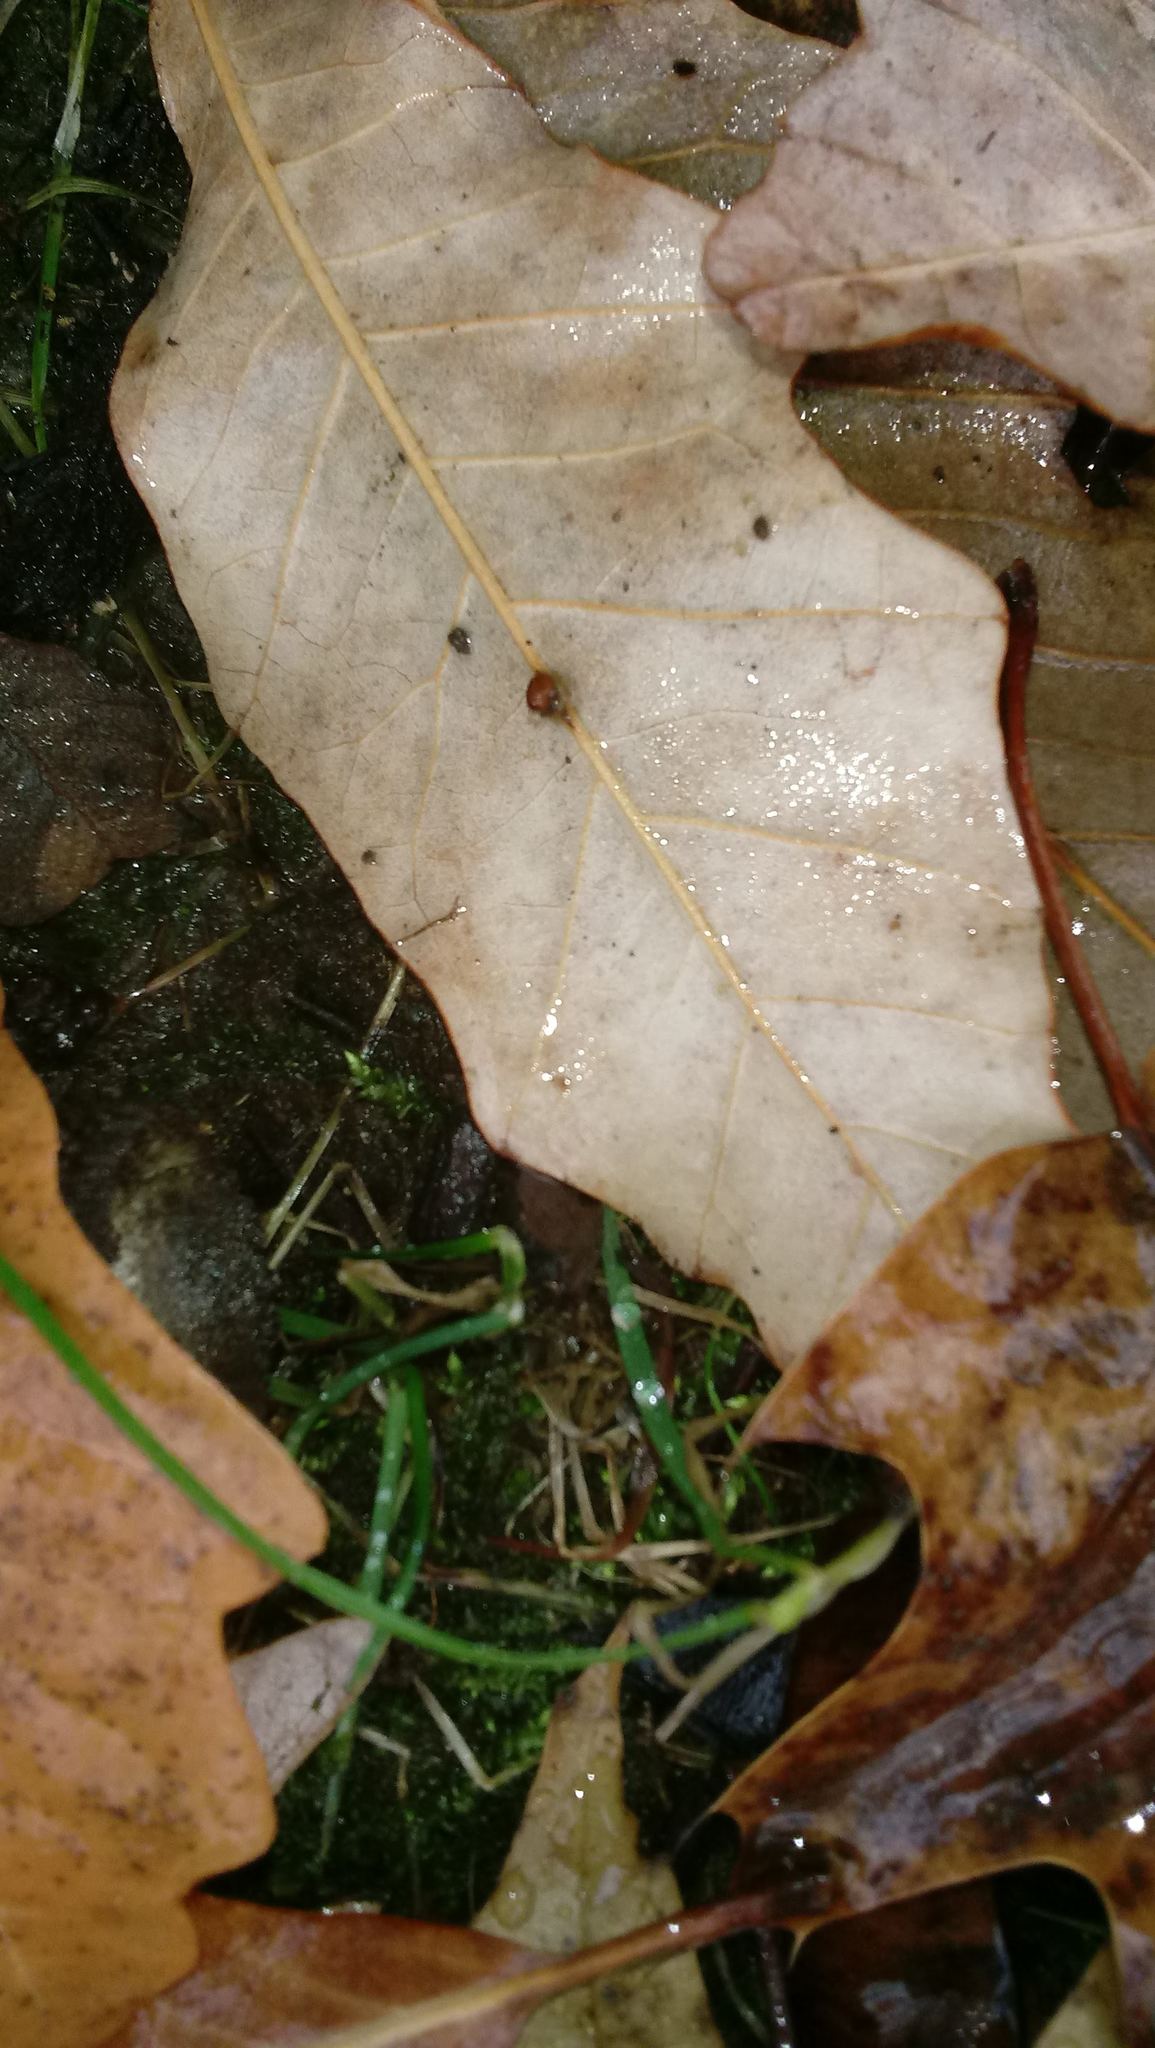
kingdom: Animalia
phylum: Arthropoda
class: Insecta
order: Hymenoptera
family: Cynipidae
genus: Andricus
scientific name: Andricus Druon ignotum
